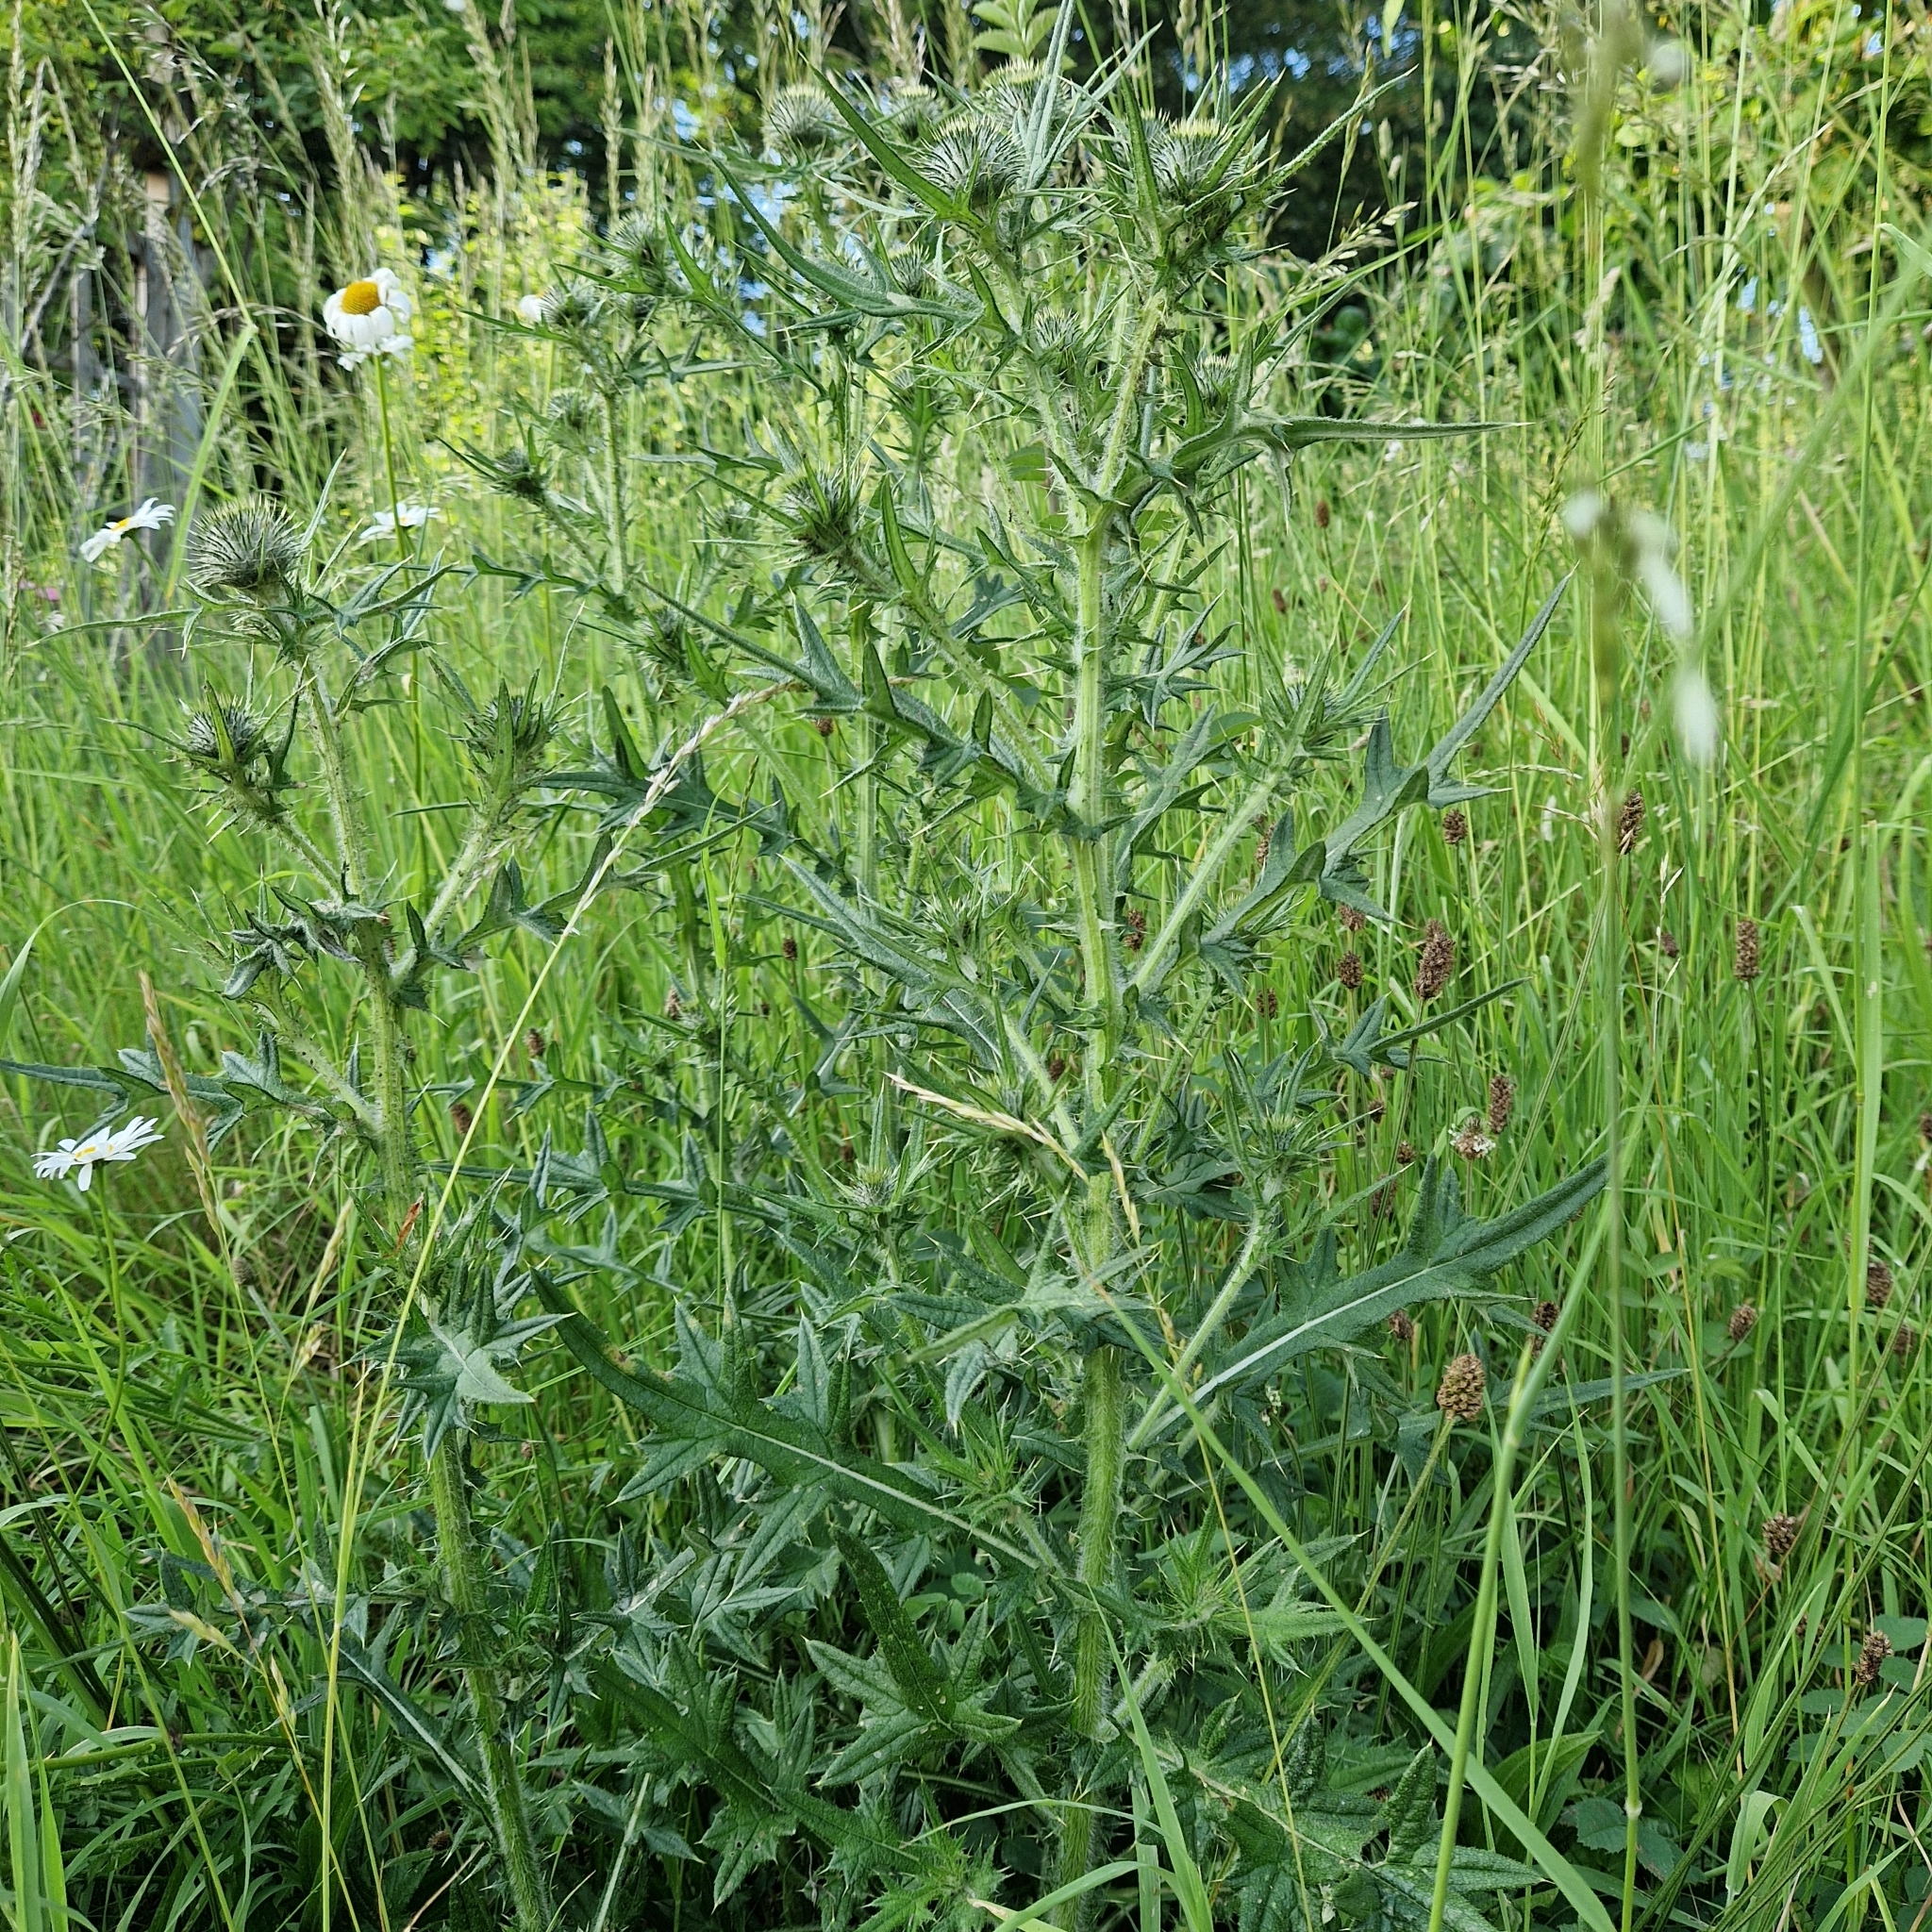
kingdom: Plantae
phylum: Tracheophyta
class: Magnoliopsida
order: Asterales
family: Asteraceae
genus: Cirsium
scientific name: Cirsium vulgare
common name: Bull thistle
